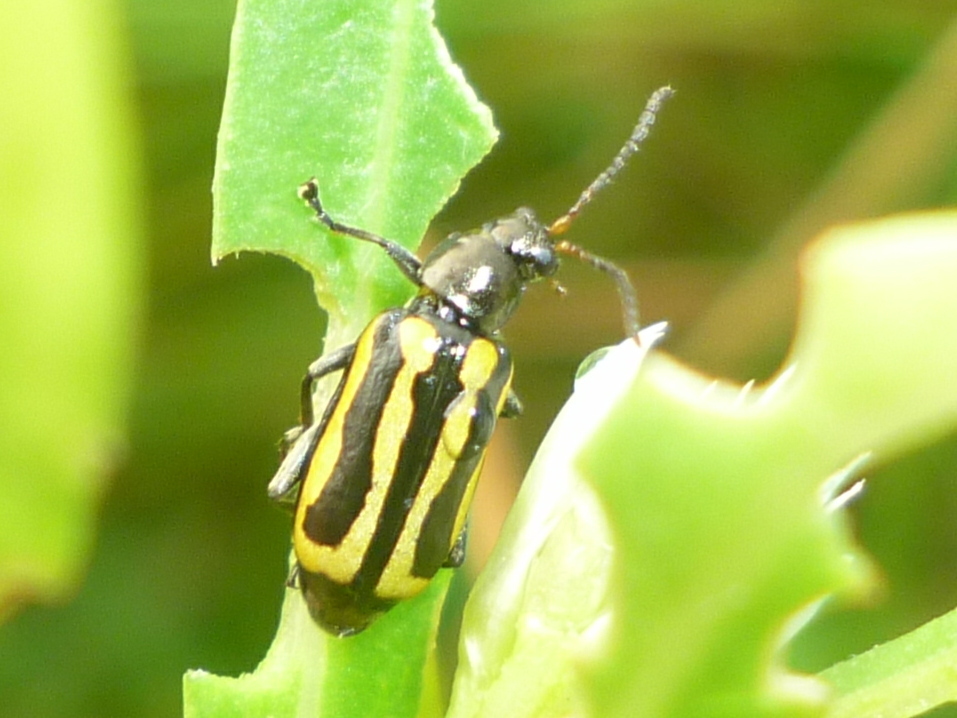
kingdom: Animalia
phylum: Arthropoda
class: Insecta
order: Coleoptera
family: Chrysomelidae
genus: Agasicles
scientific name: Agasicles hygrophila
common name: Alligatorweed flea beetle
